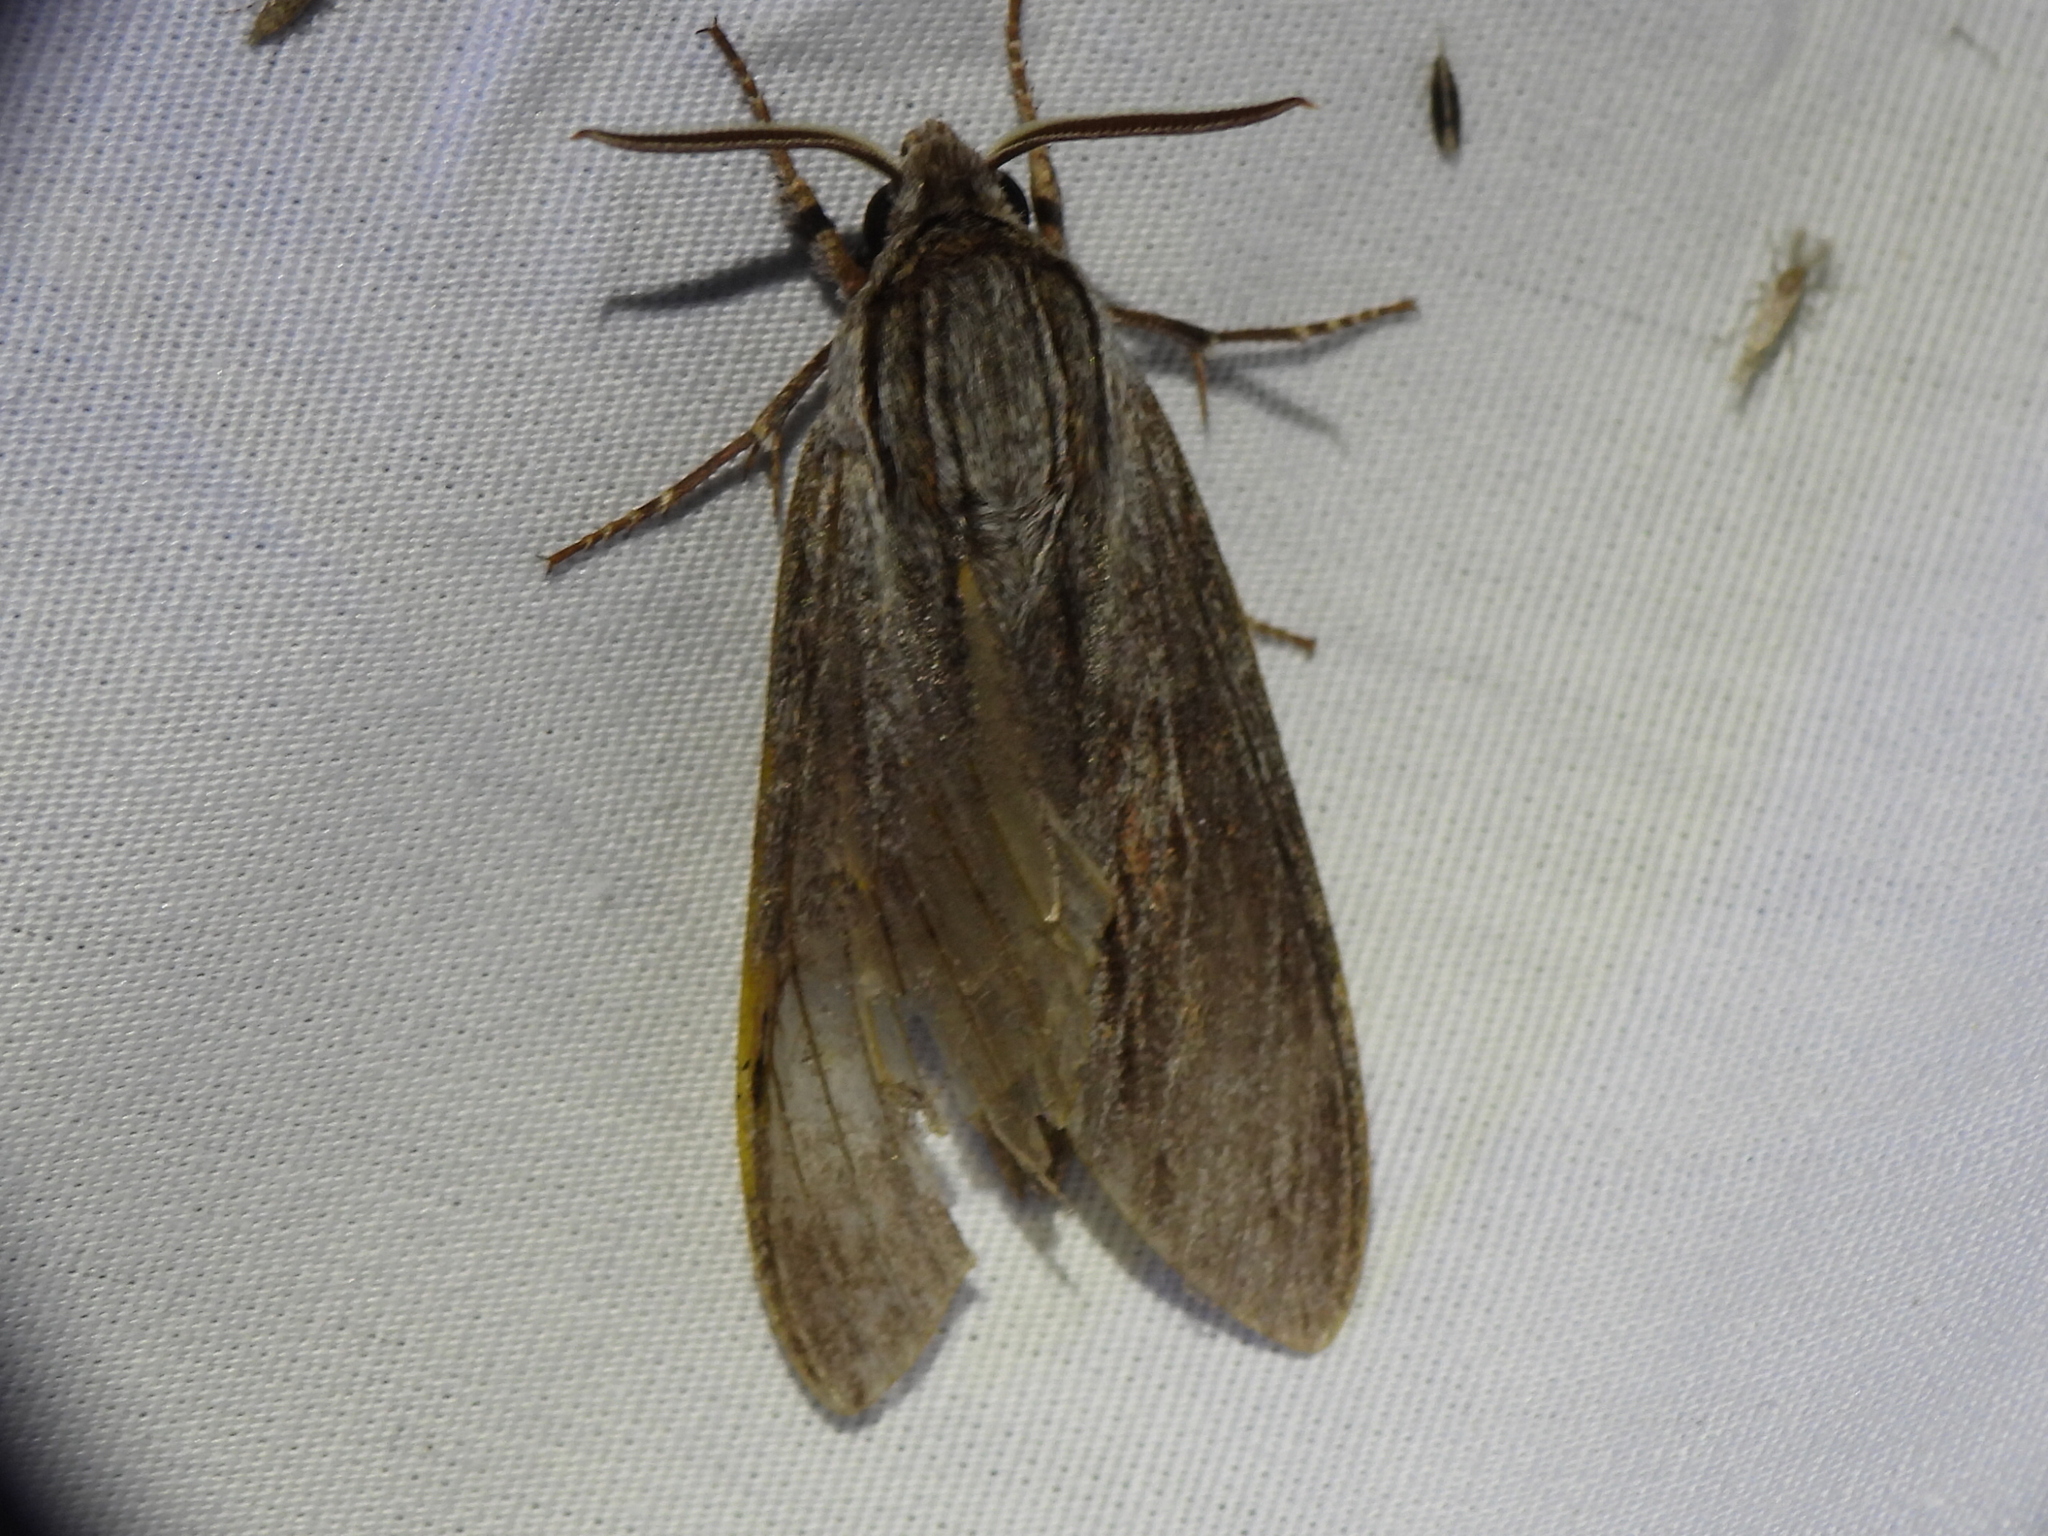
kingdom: Animalia
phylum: Arthropoda
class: Insecta
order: Lepidoptera
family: Sphingidae
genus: Isoparce
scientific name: Isoparce cupressi
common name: Cypress sphinx
